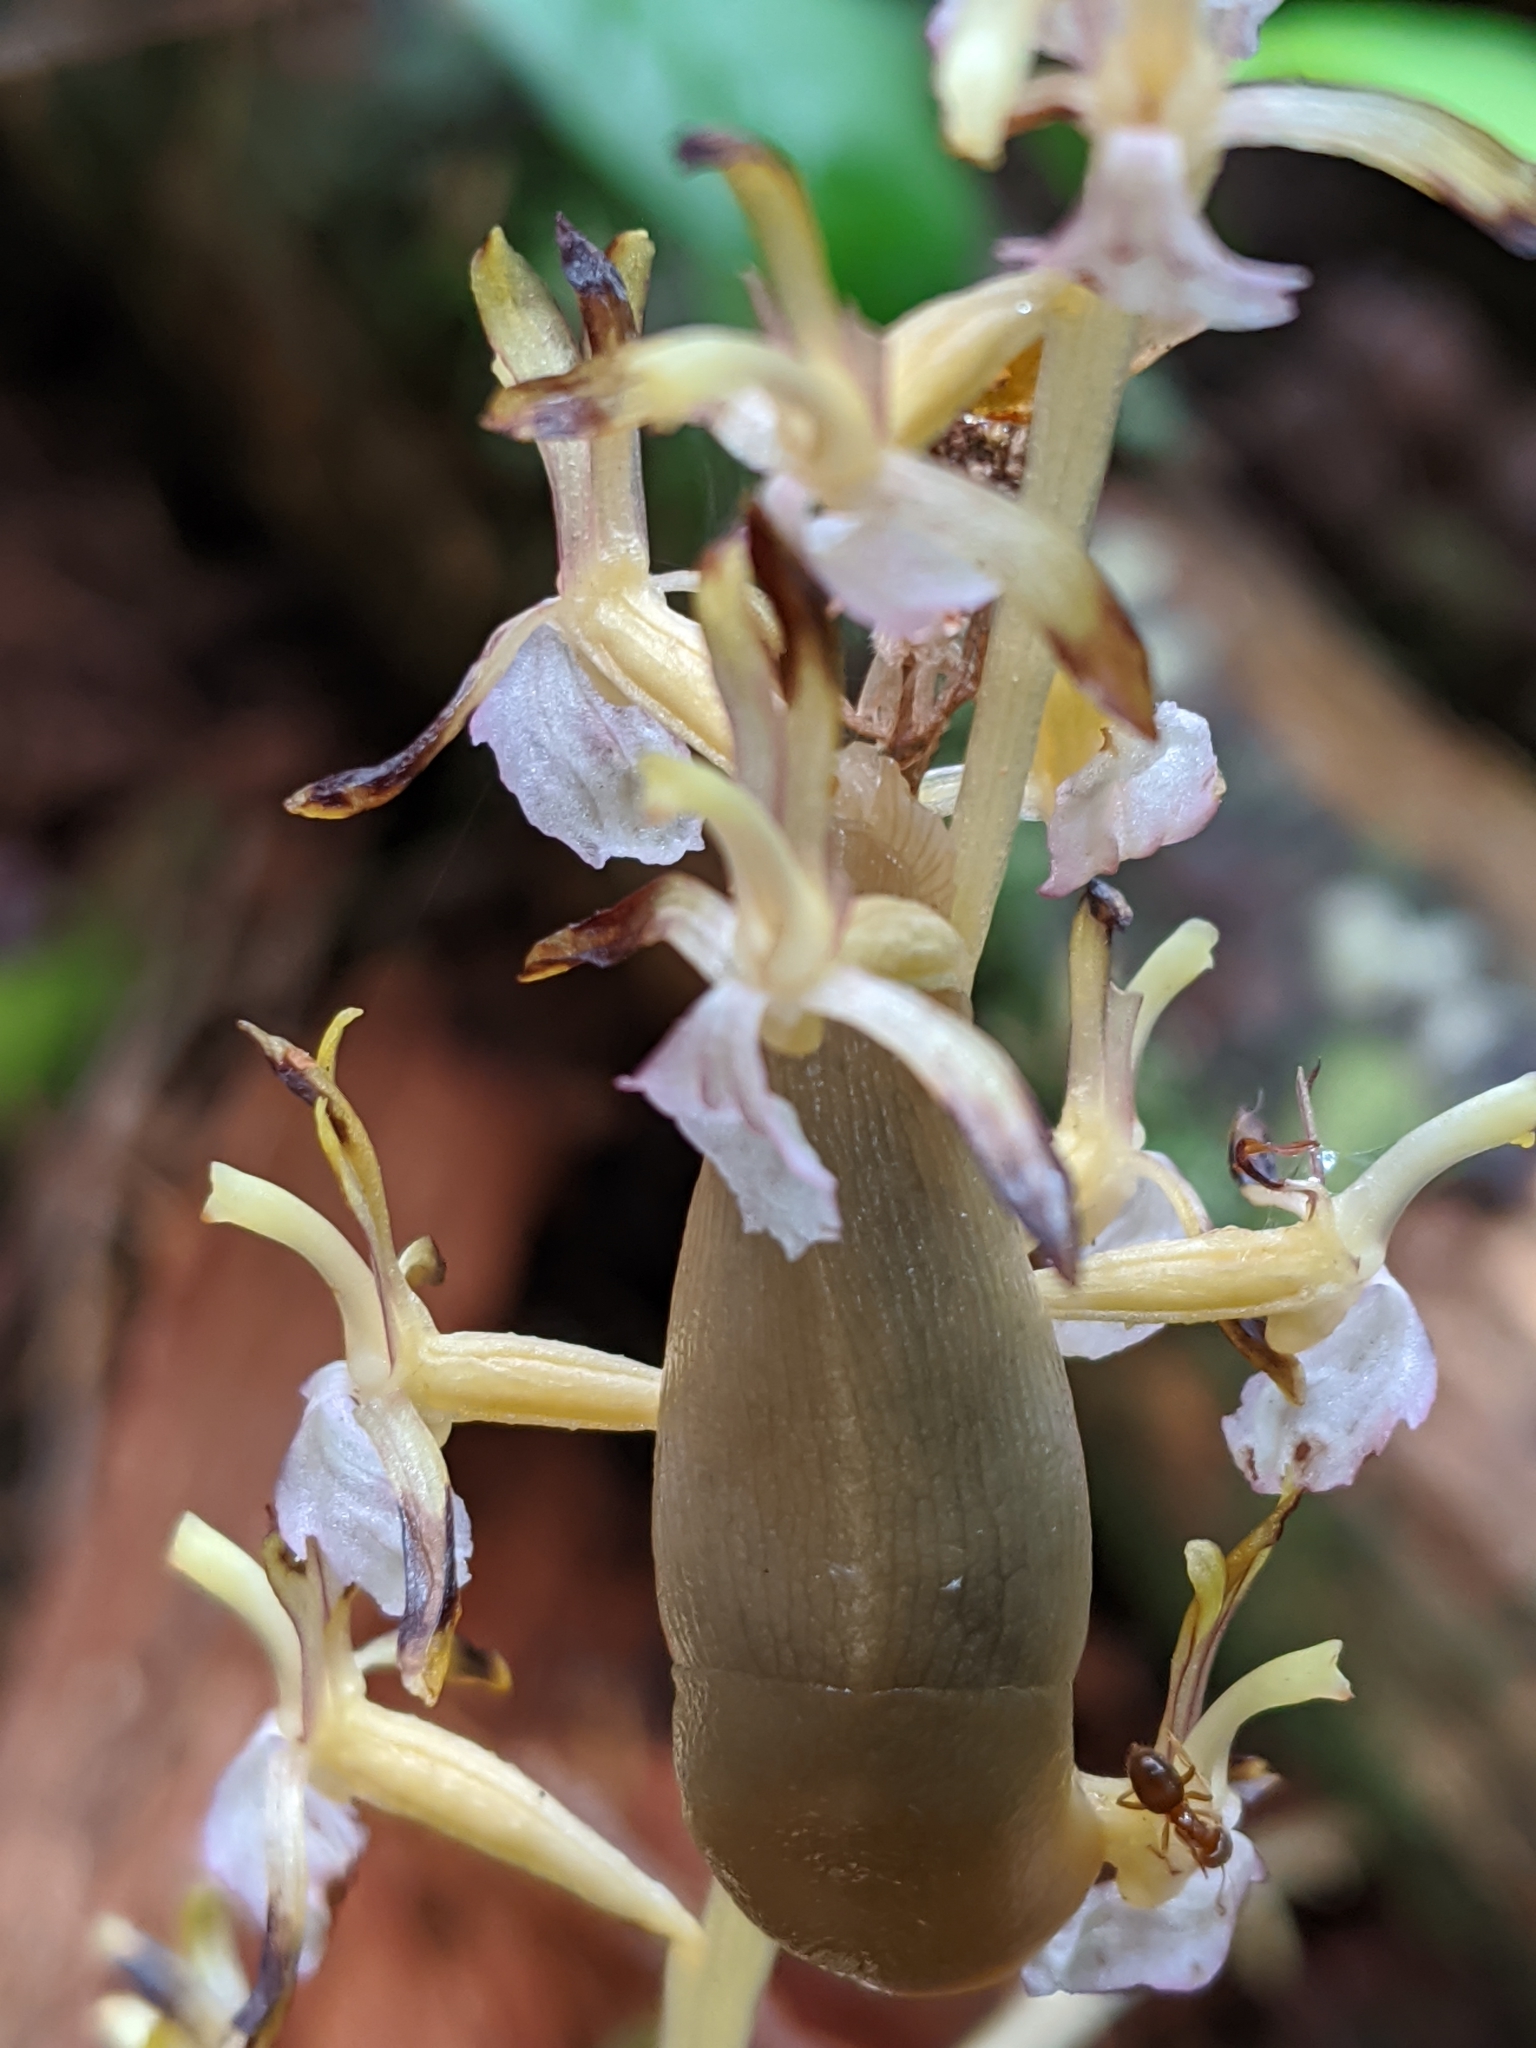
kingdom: Plantae
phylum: Tracheophyta
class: Liliopsida
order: Asparagales
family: Orchidaceae
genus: Corallorhiza
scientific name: Corallorhiza mertensiana
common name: Pacific coralroot
